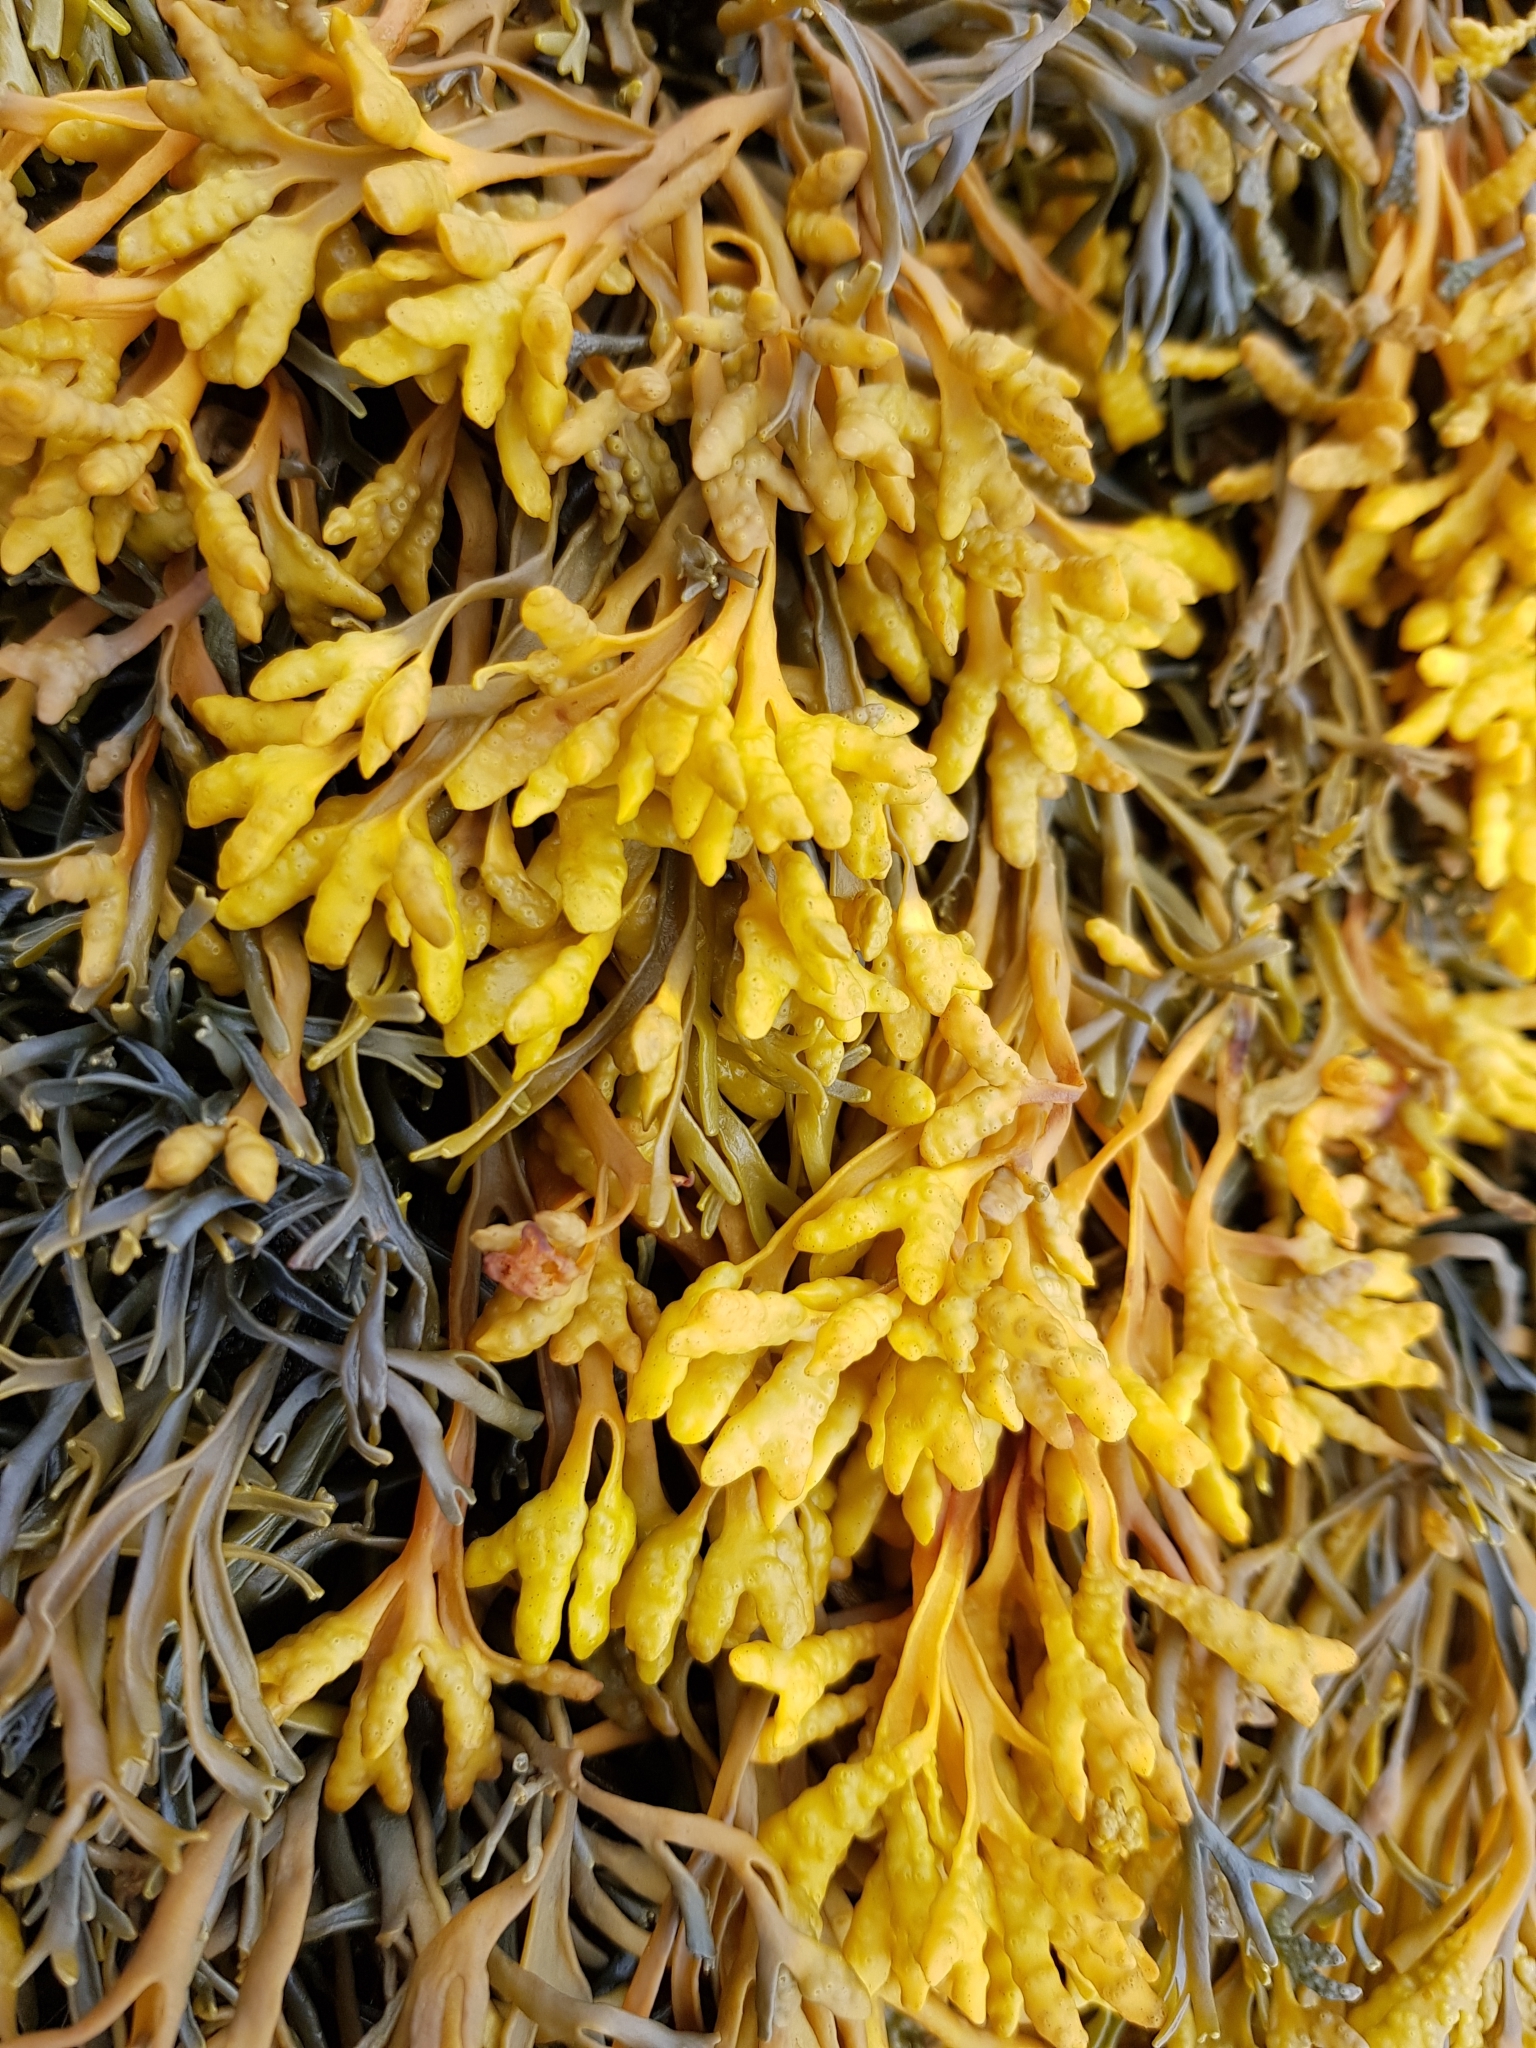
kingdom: Chromista
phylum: Ochrophyta
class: Phaeophyceae
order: Fucales
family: Fucaceae
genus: Pelvetia
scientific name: Pelvetia canaliculata
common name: Channelled wrack
